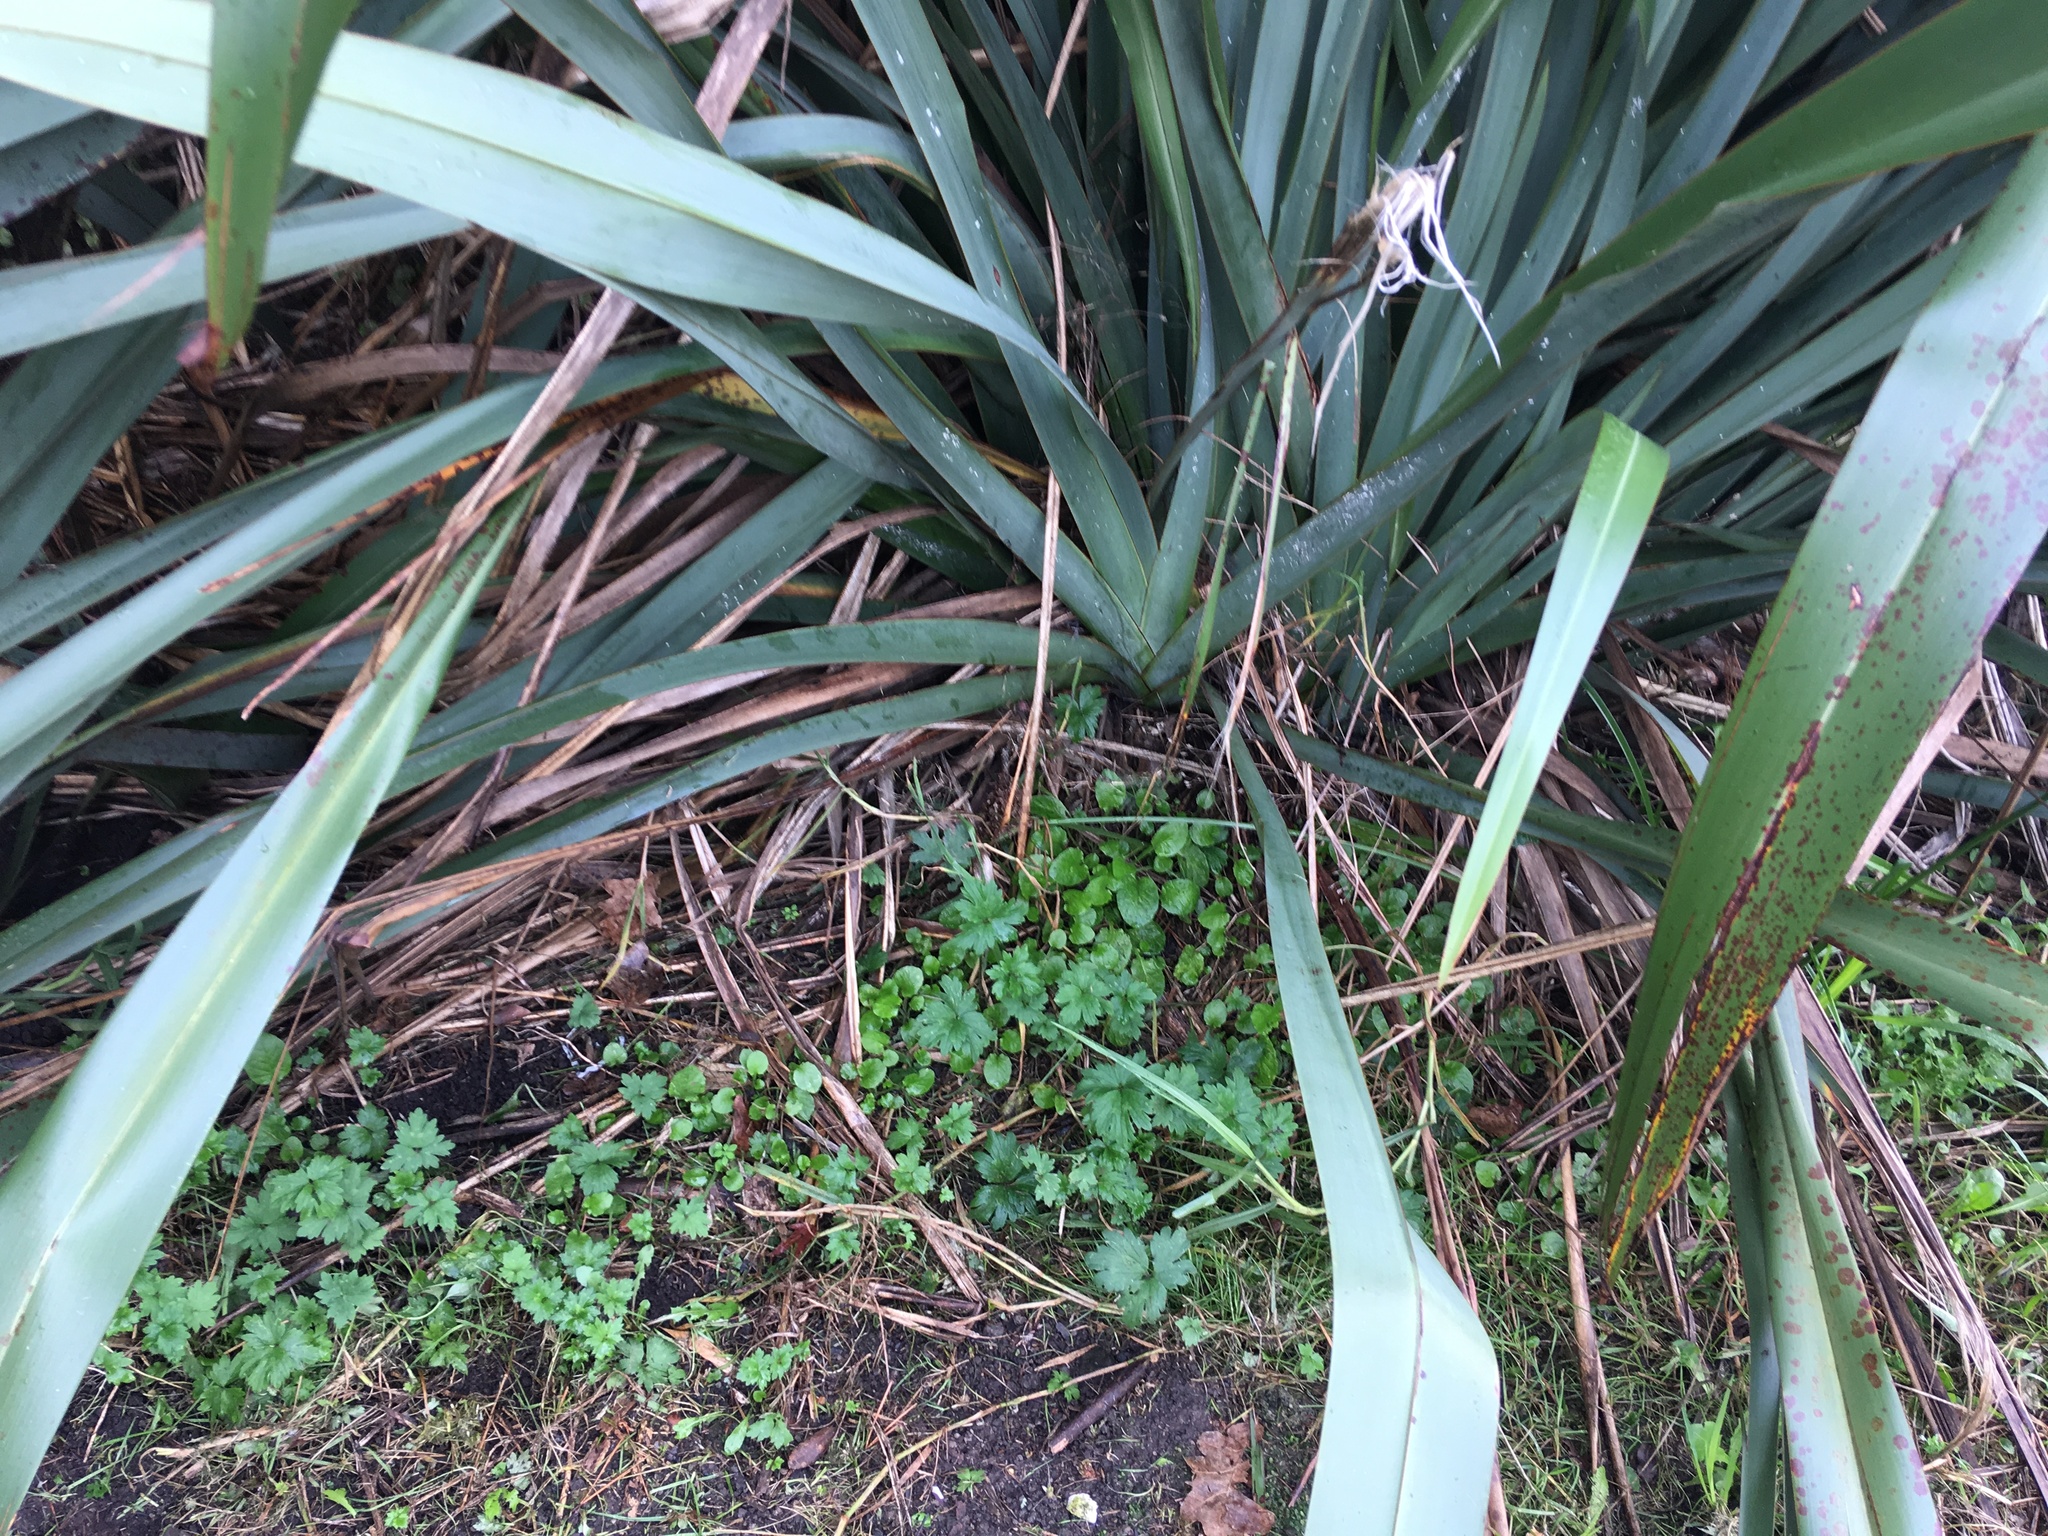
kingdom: Plantae
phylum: Tracheophyta
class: Magnoliopsida
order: Ranunculales
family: Ranunculaceae
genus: Ranunculus
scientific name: Ranunculus repens
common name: Creeping buttercup
